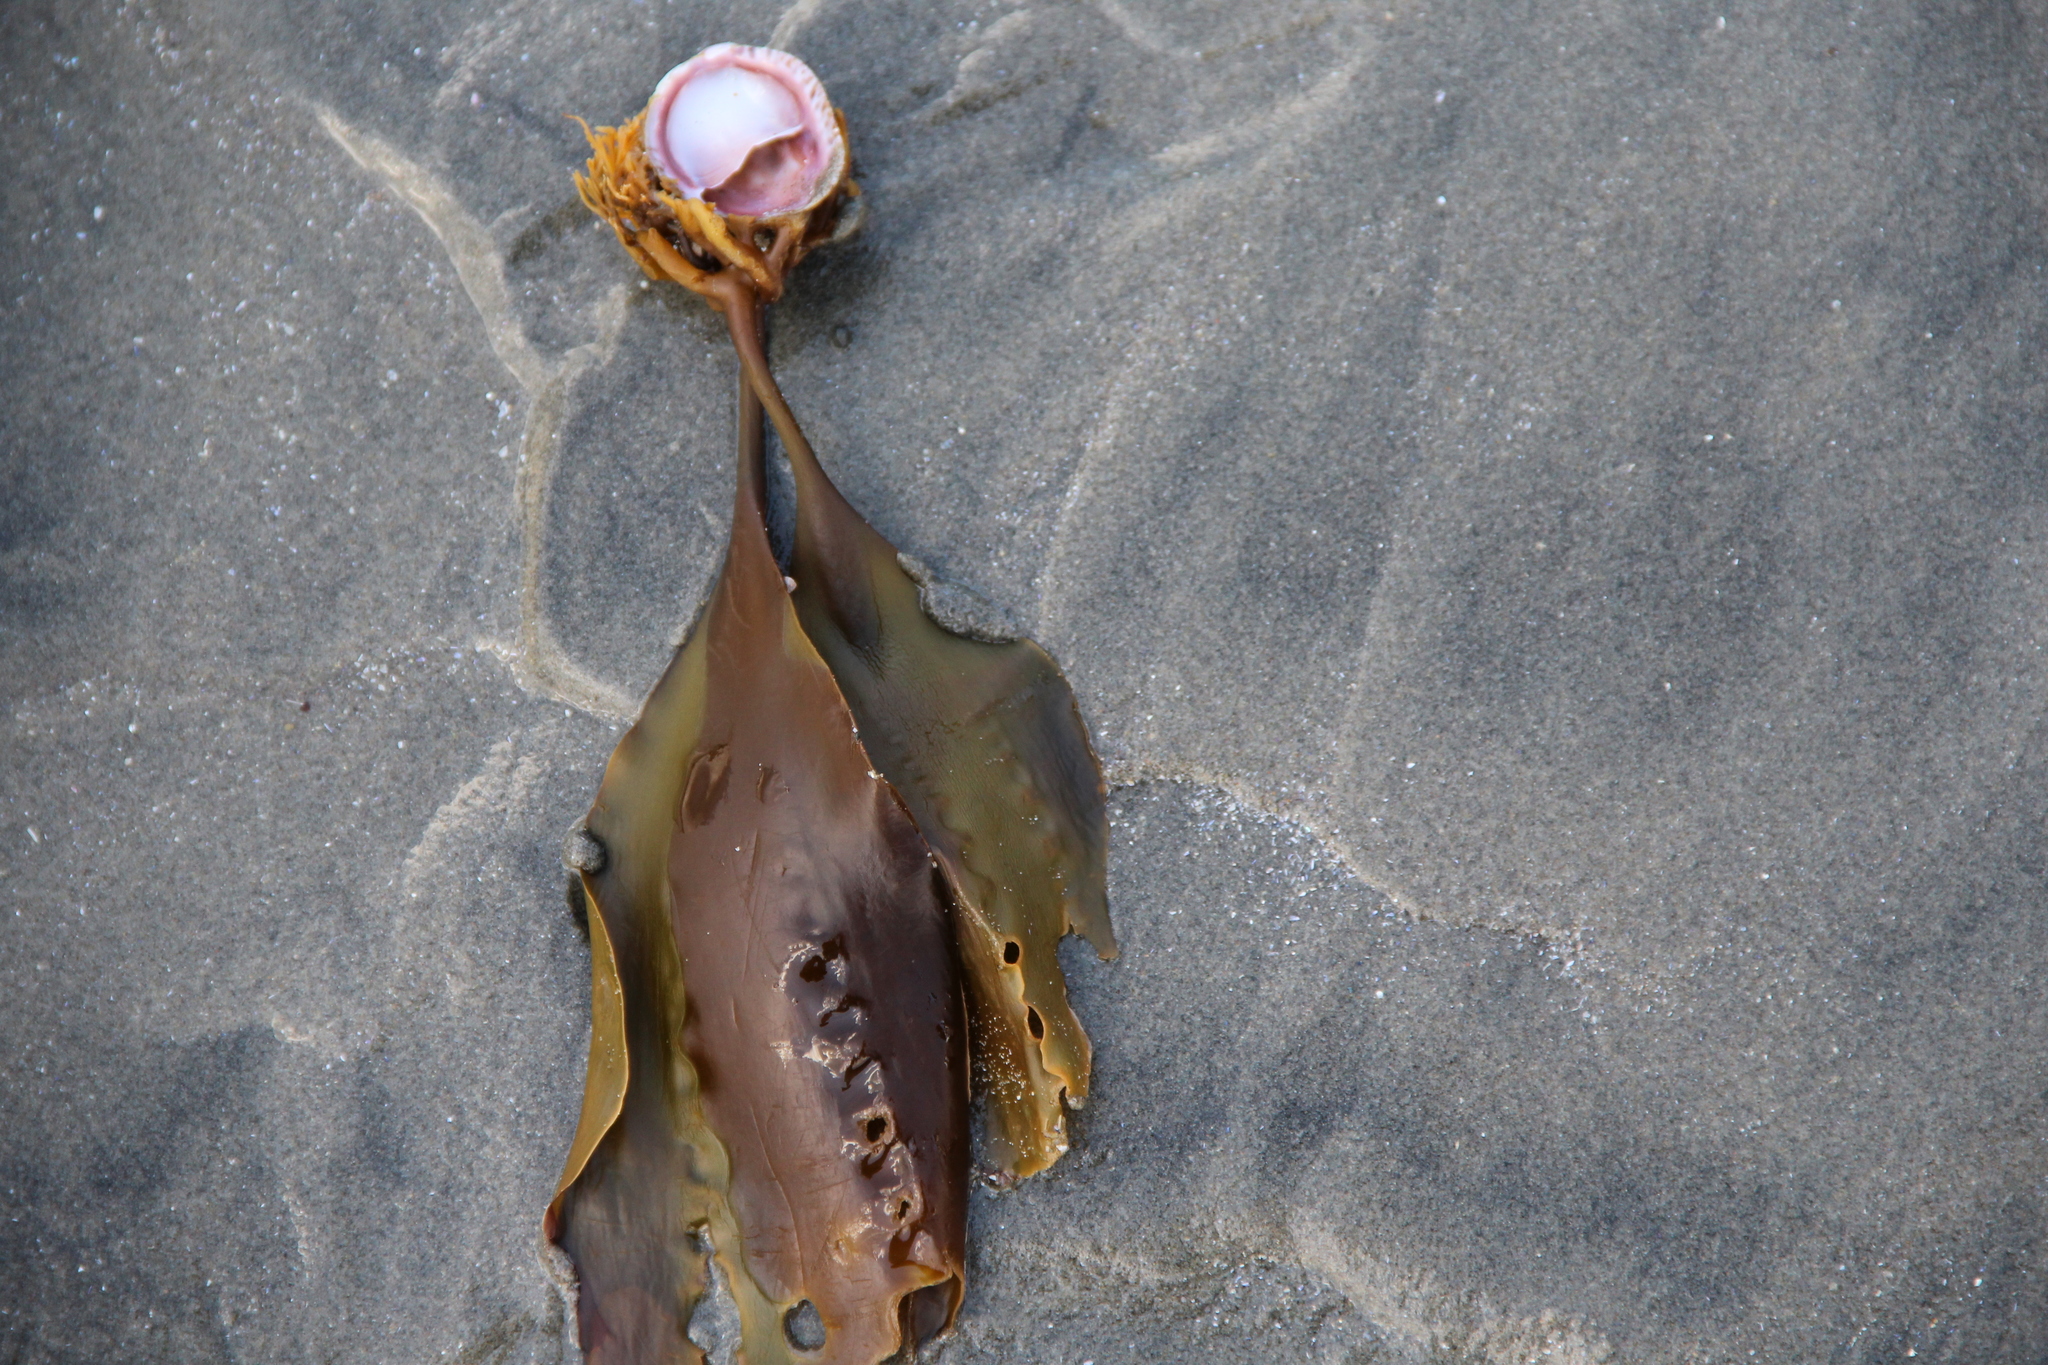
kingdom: Animalia
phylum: Mollusca
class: Gastropoda
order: Littorinimorpha
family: Calyptraeidae
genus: Crepidula
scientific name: Crepidula fornicata
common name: Slipper limpet
